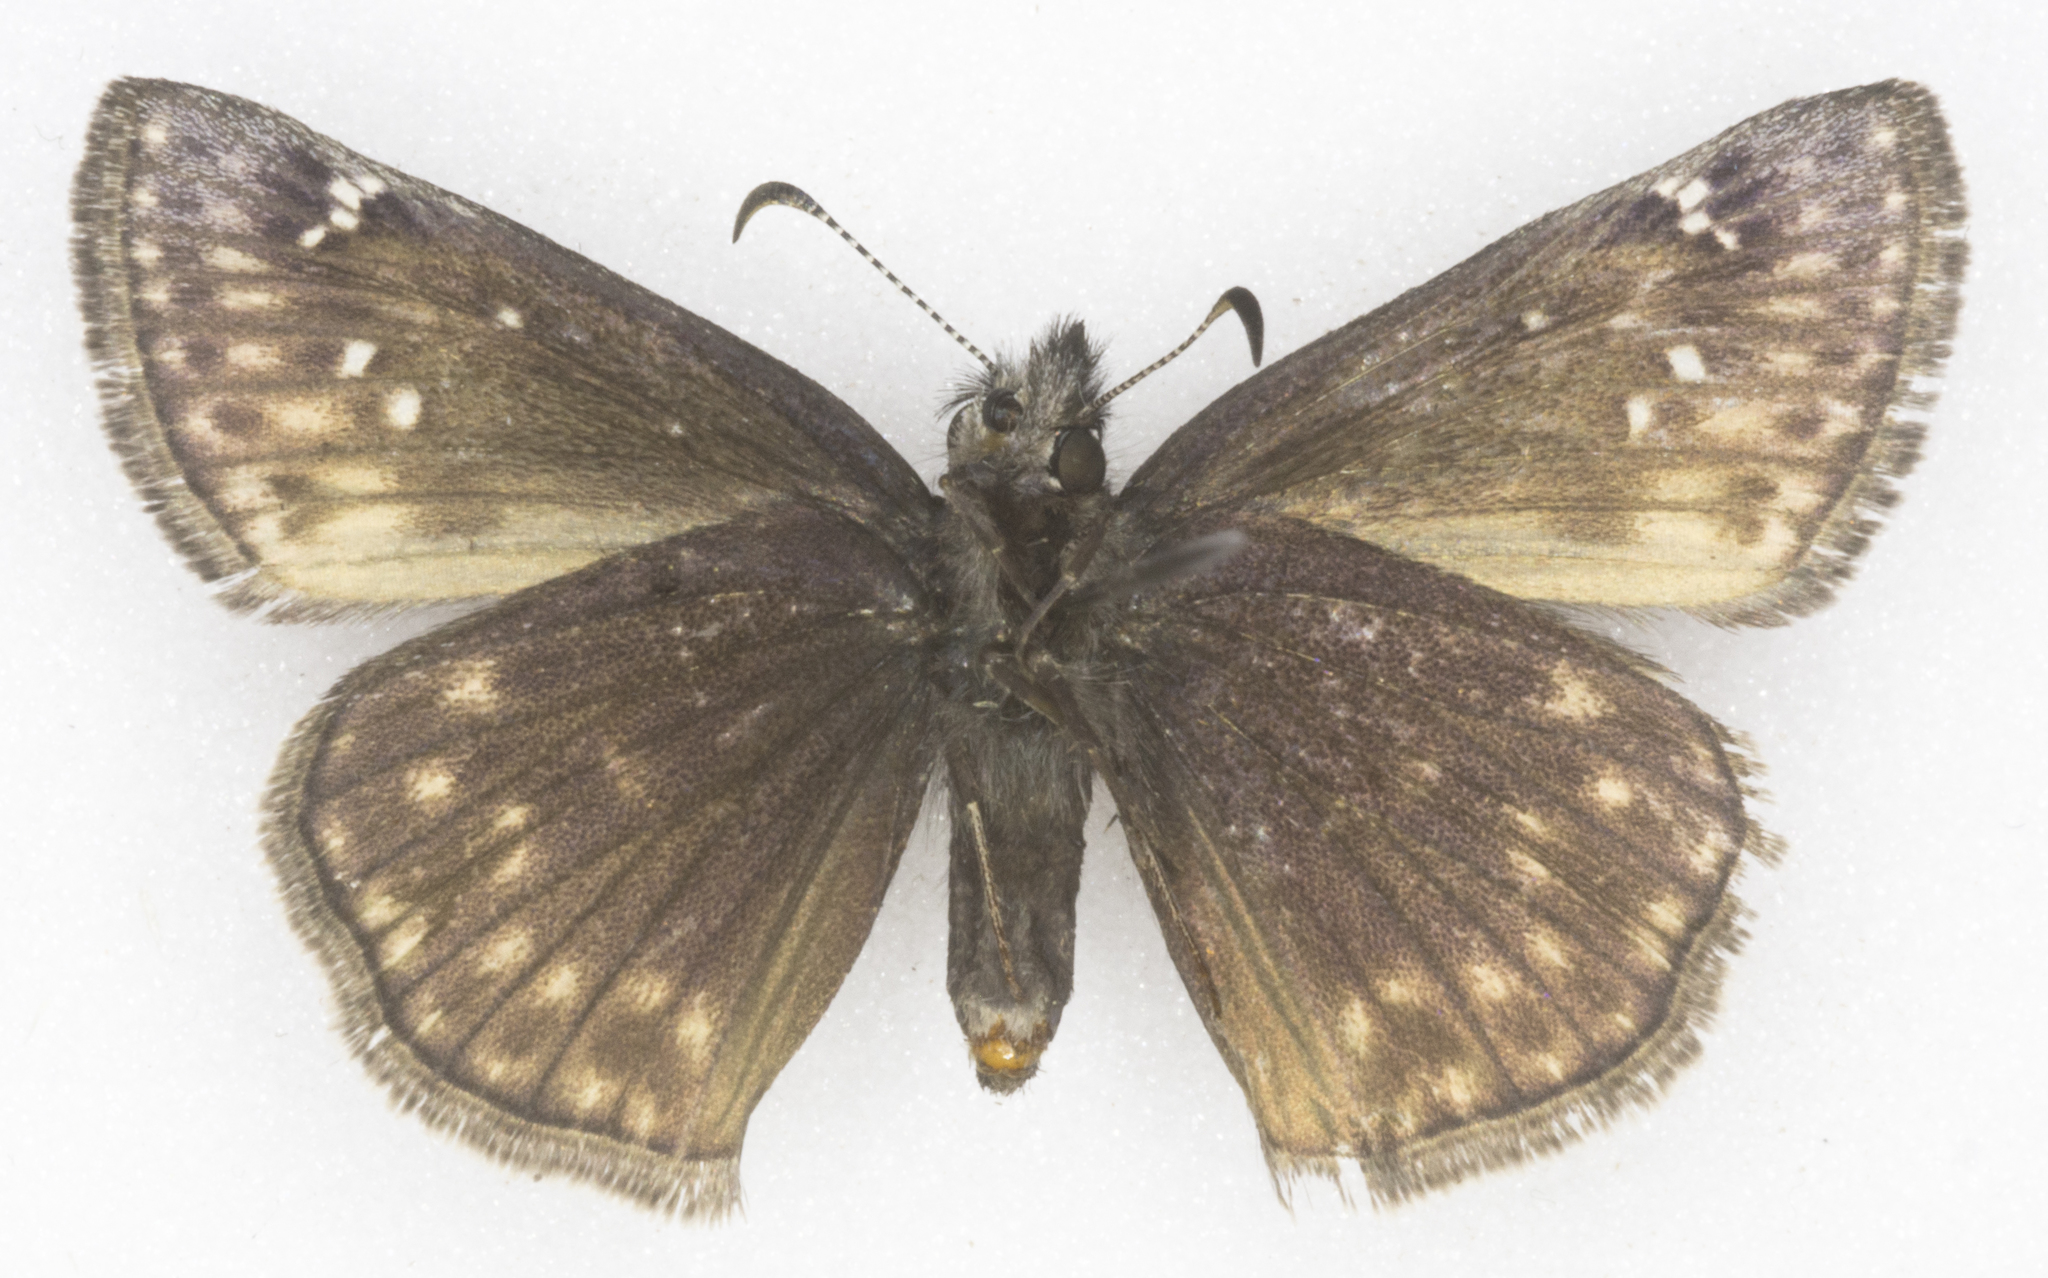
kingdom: Animalia
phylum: Arthropoda
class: Insecta
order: Lepidoptera
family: Hesperiidae
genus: Erynnis
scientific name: Erynnis persius
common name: Persius duskywing
